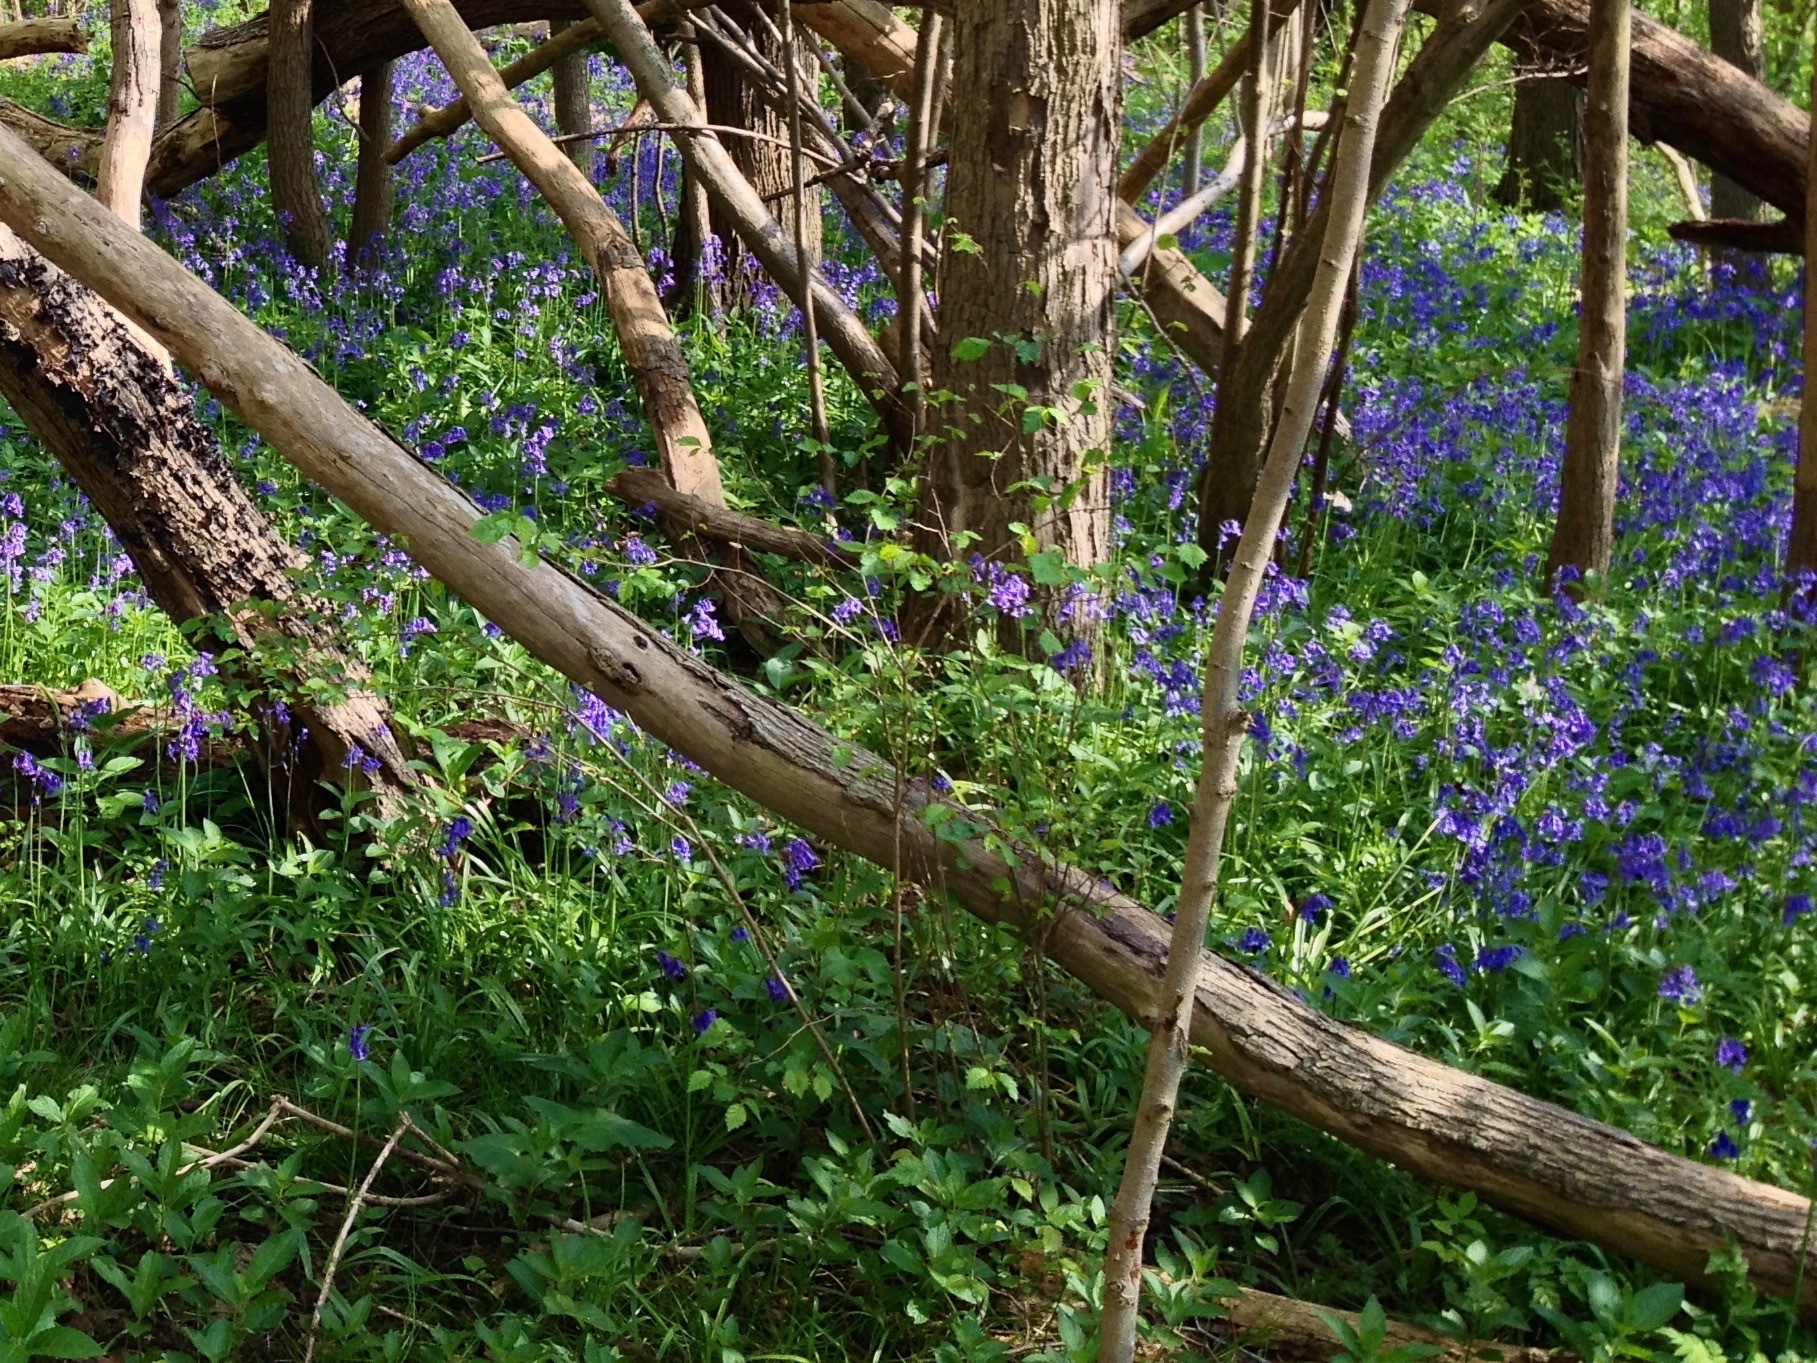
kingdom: Plantae
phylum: Tracheophyta
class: Liliopsida
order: Asparagales
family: Asparagaceae
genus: Hyacinthoides
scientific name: Hyacinthoides non-scripta
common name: Bluebell
